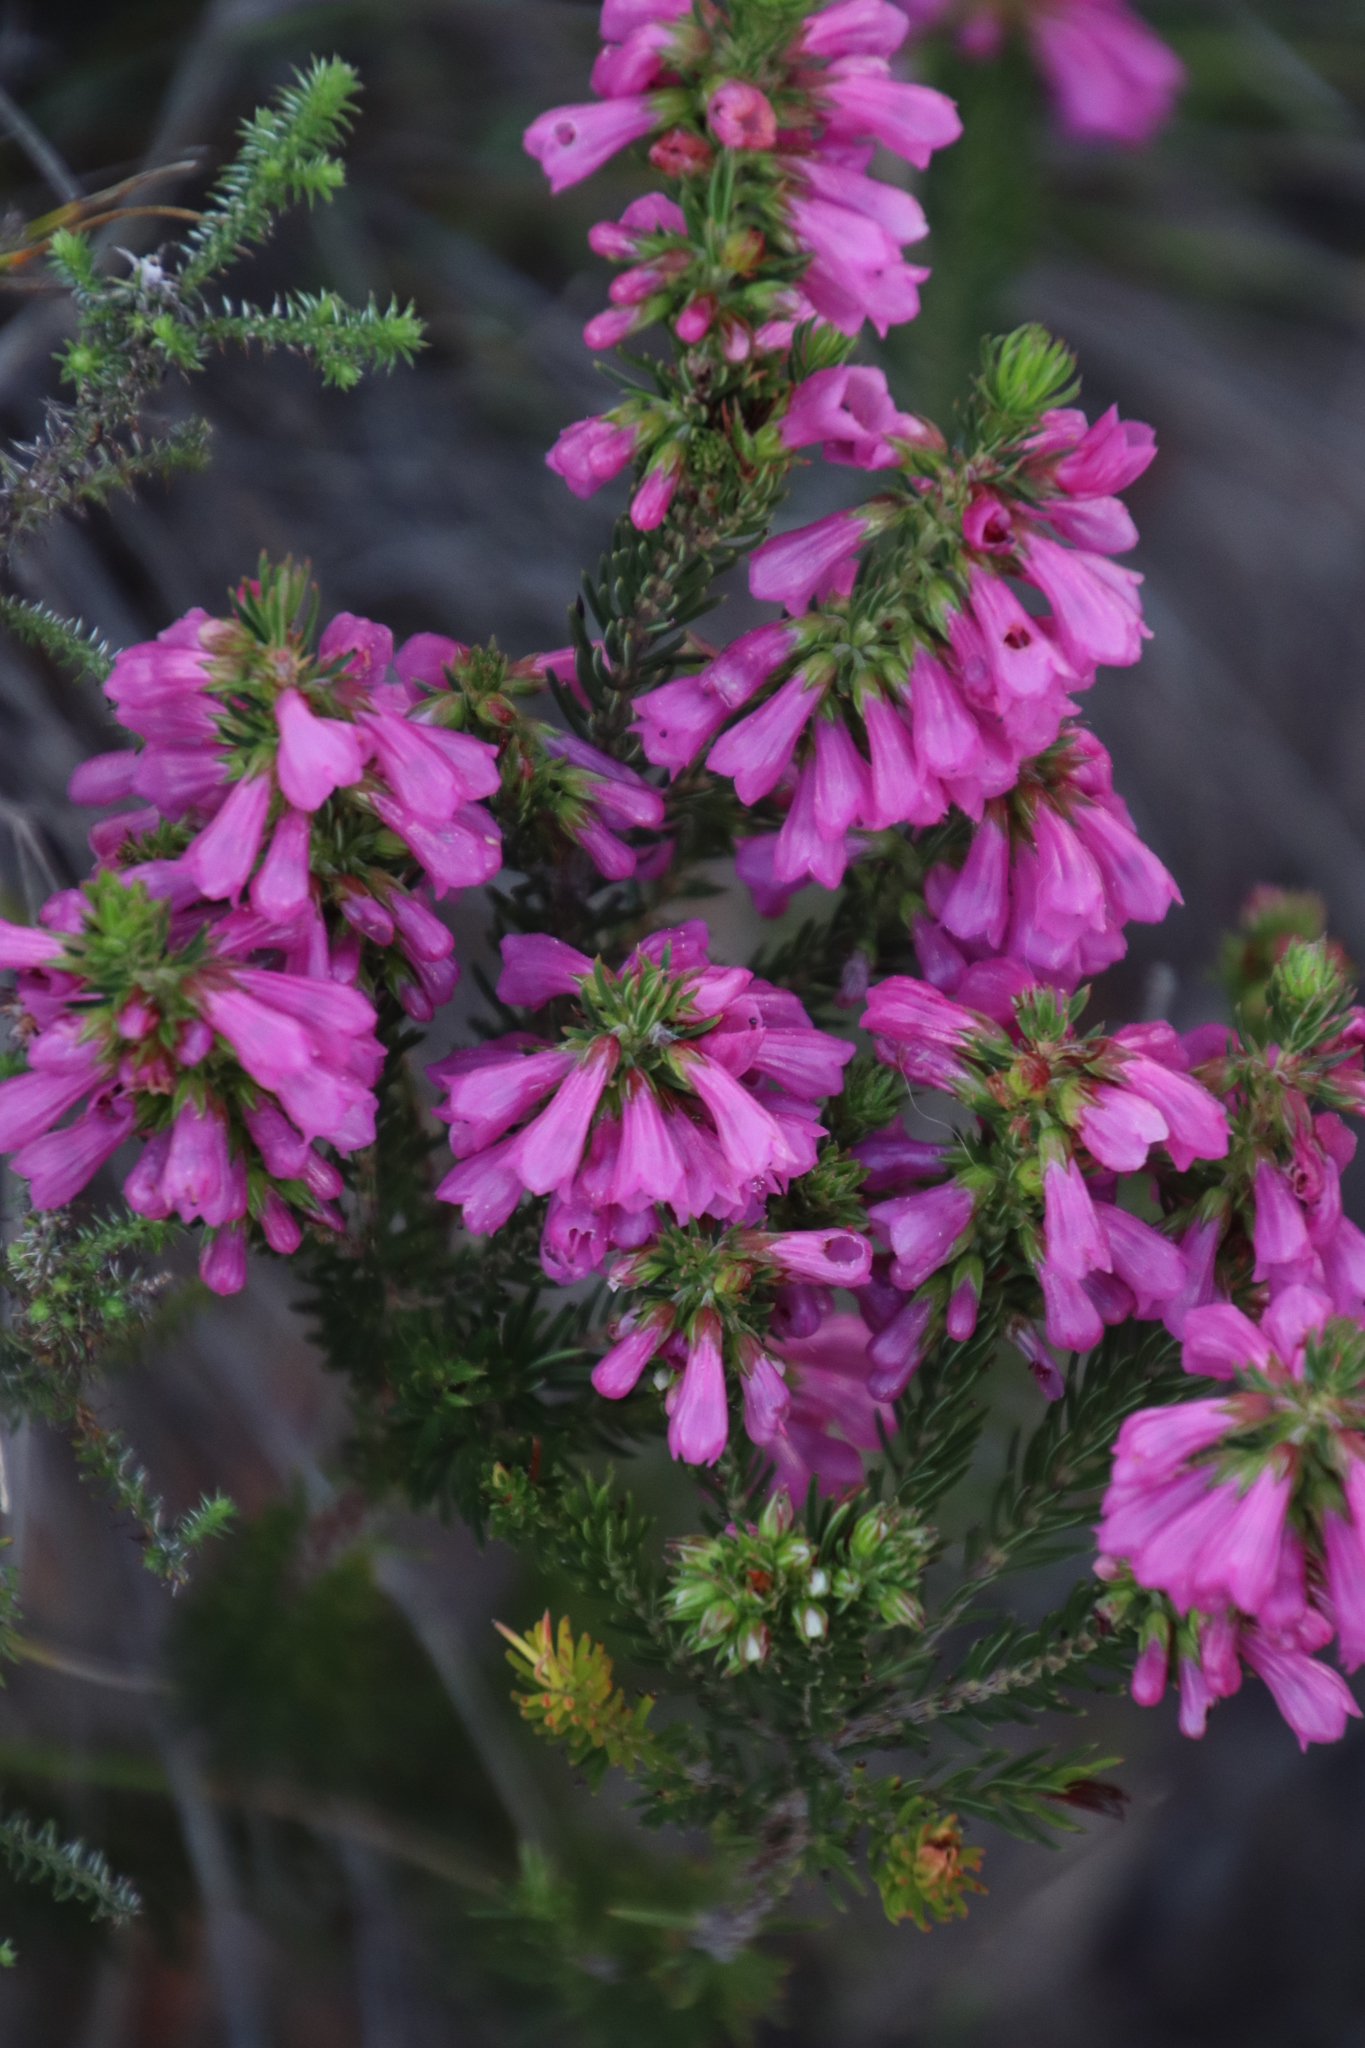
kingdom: Plantae
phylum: Tracheophyta
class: Magnoliopsida
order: Ericales
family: Ericaceae
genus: Erica
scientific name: Erica abietina
